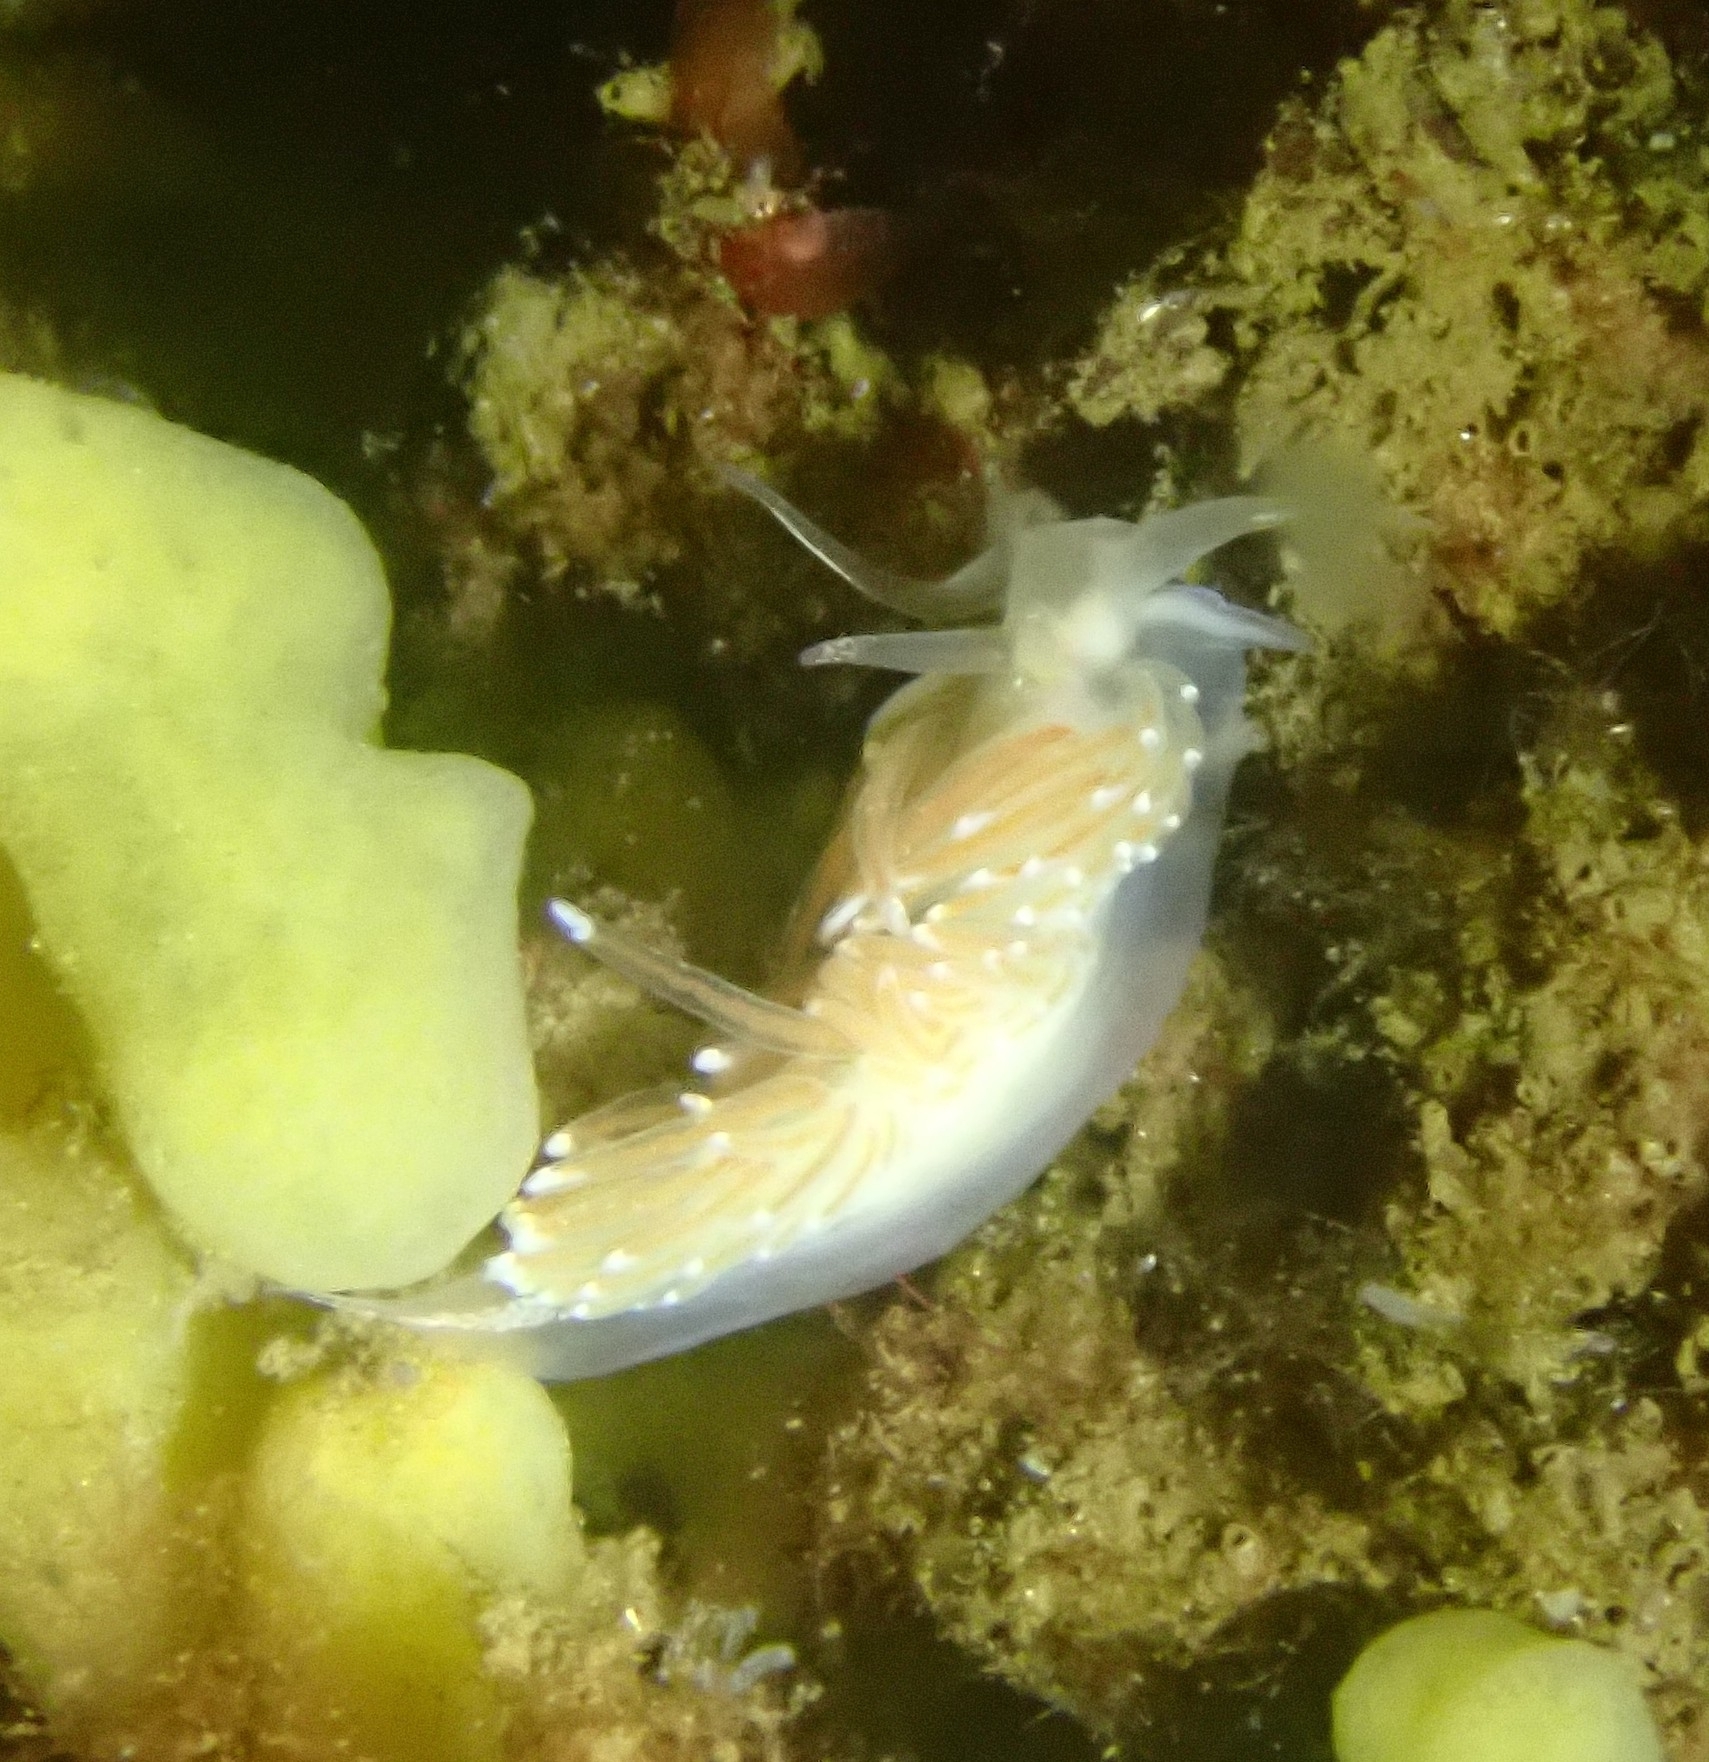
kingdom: Animalia
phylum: Mollusca
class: Gastropoda
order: Nudibranchia
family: Facelinidae
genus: Facelina
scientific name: Facelina bostoniensis
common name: Boston facelina
